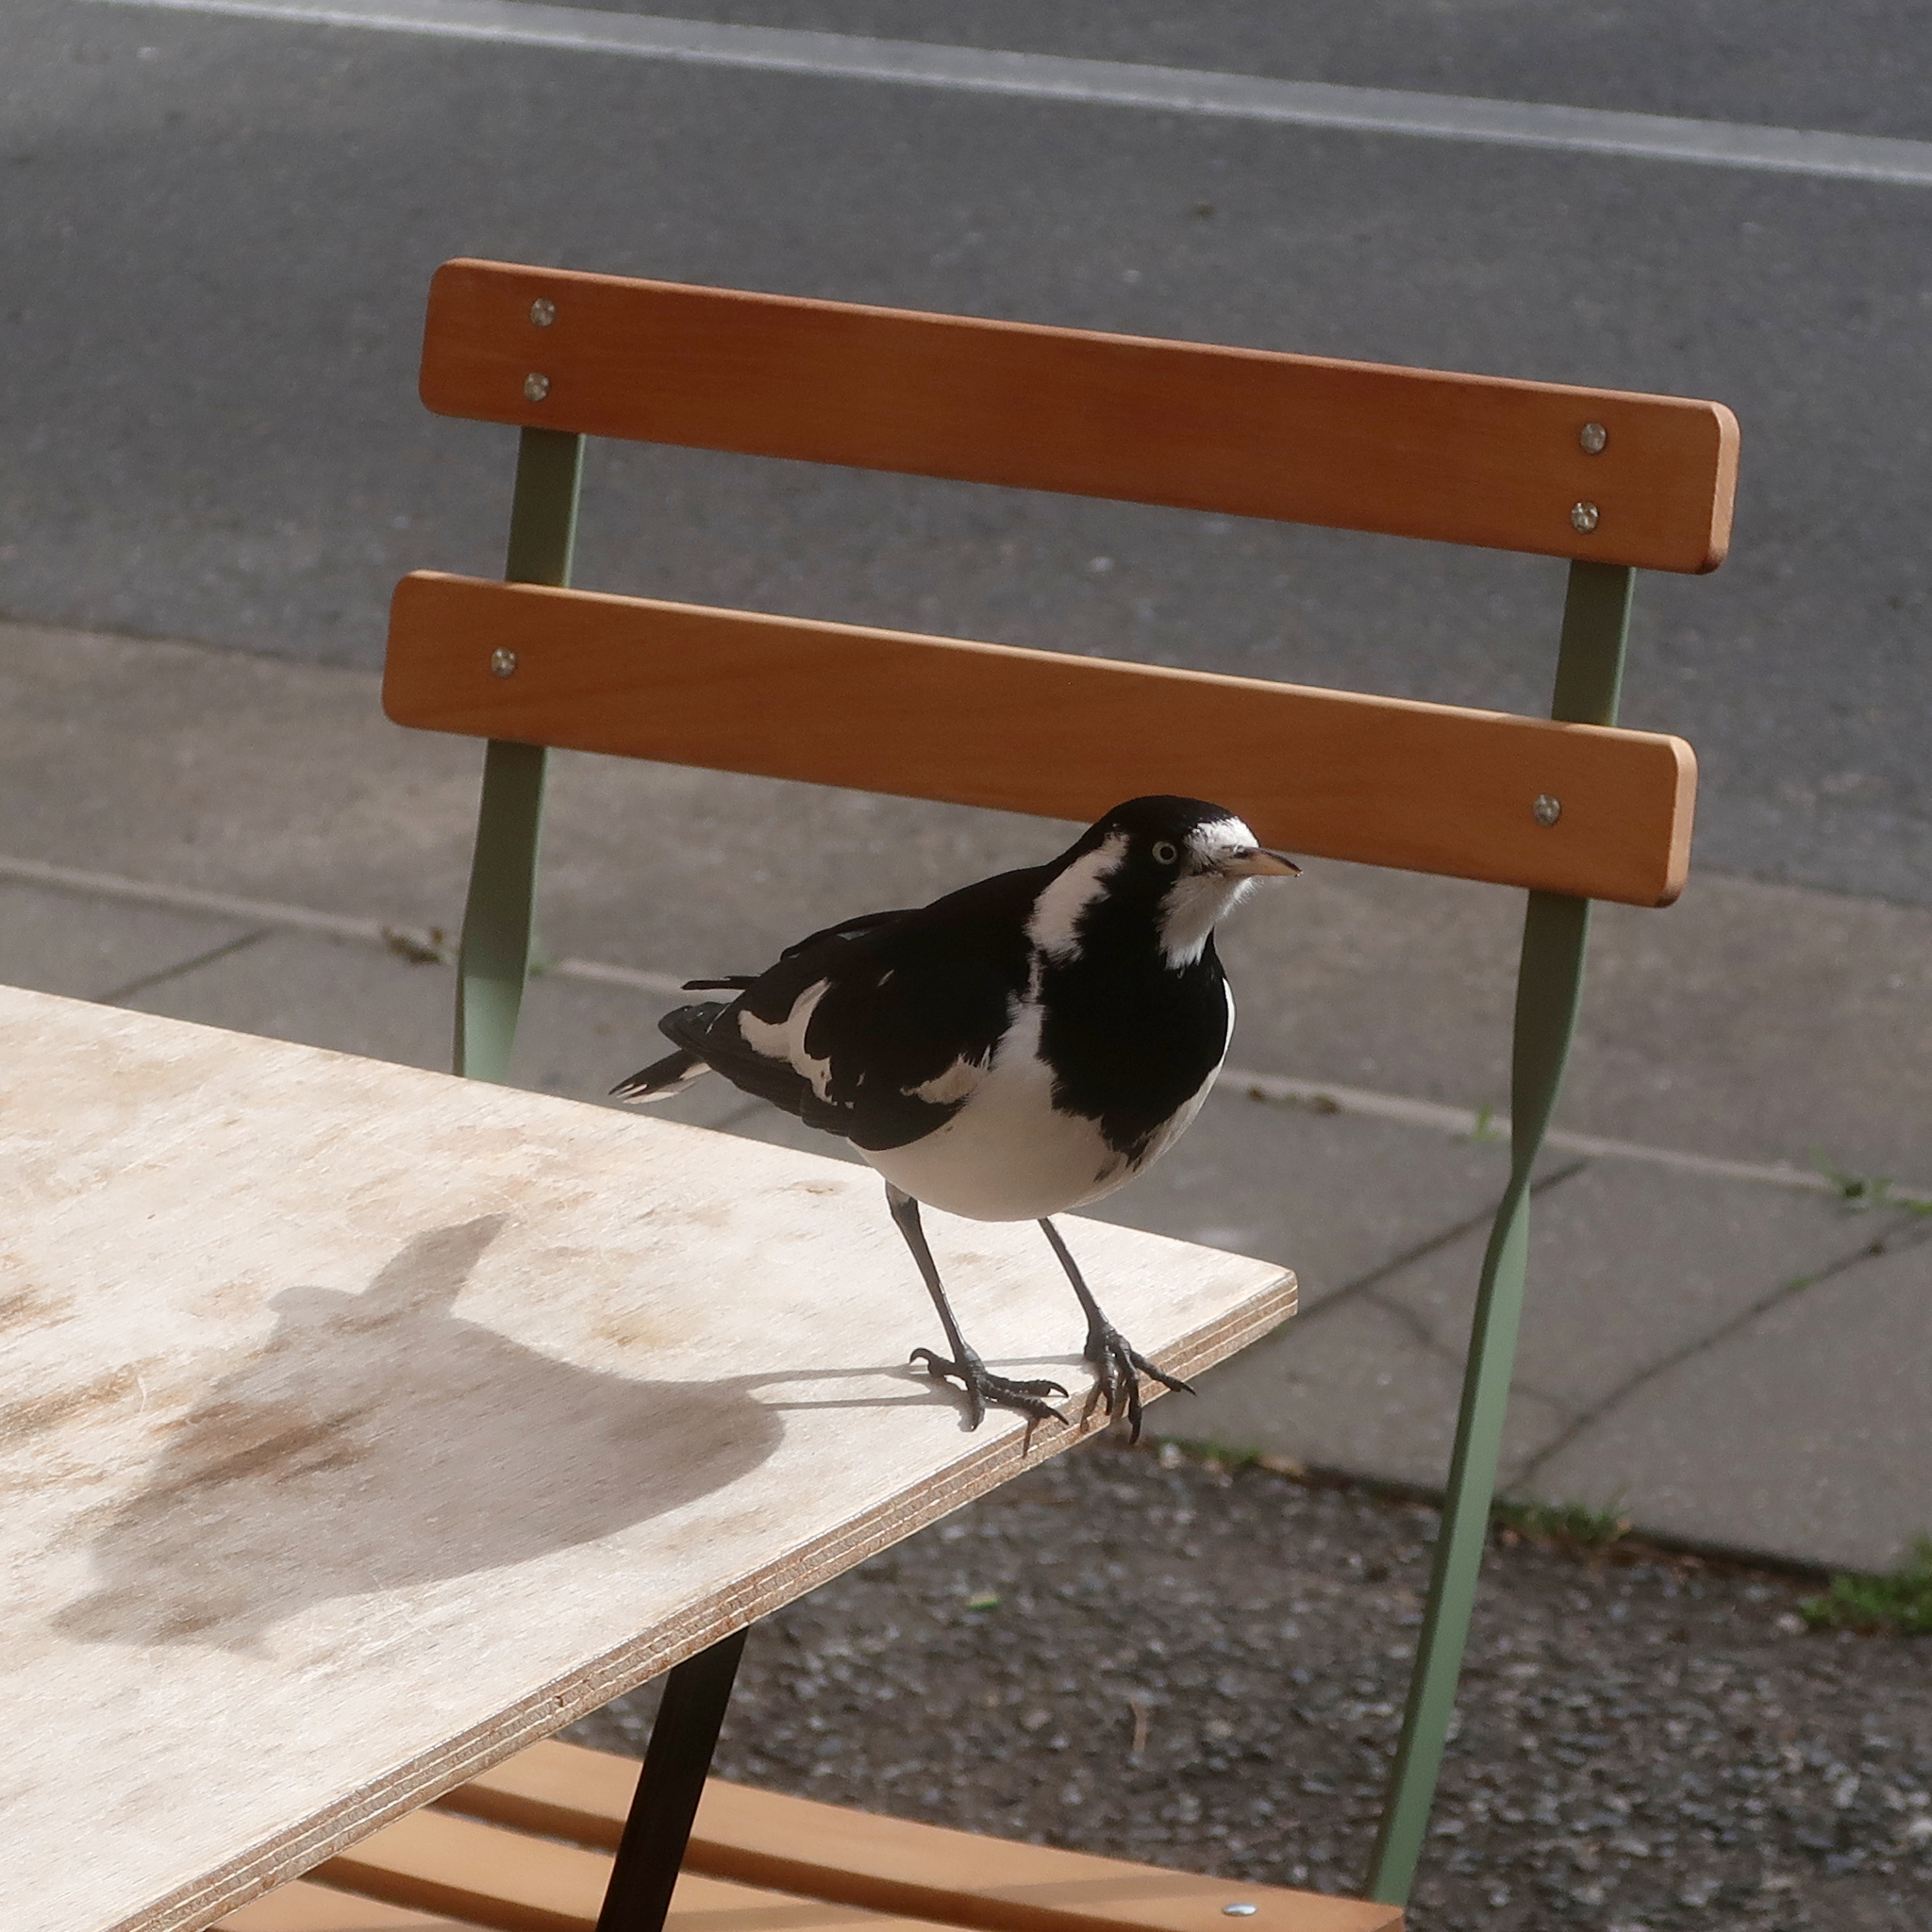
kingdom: Animalia
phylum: Chordata
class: Aves
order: Passeriformes
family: Monarchidae
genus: Grallina
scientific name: Grallina cyanoleuca
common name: Magpie-lark
